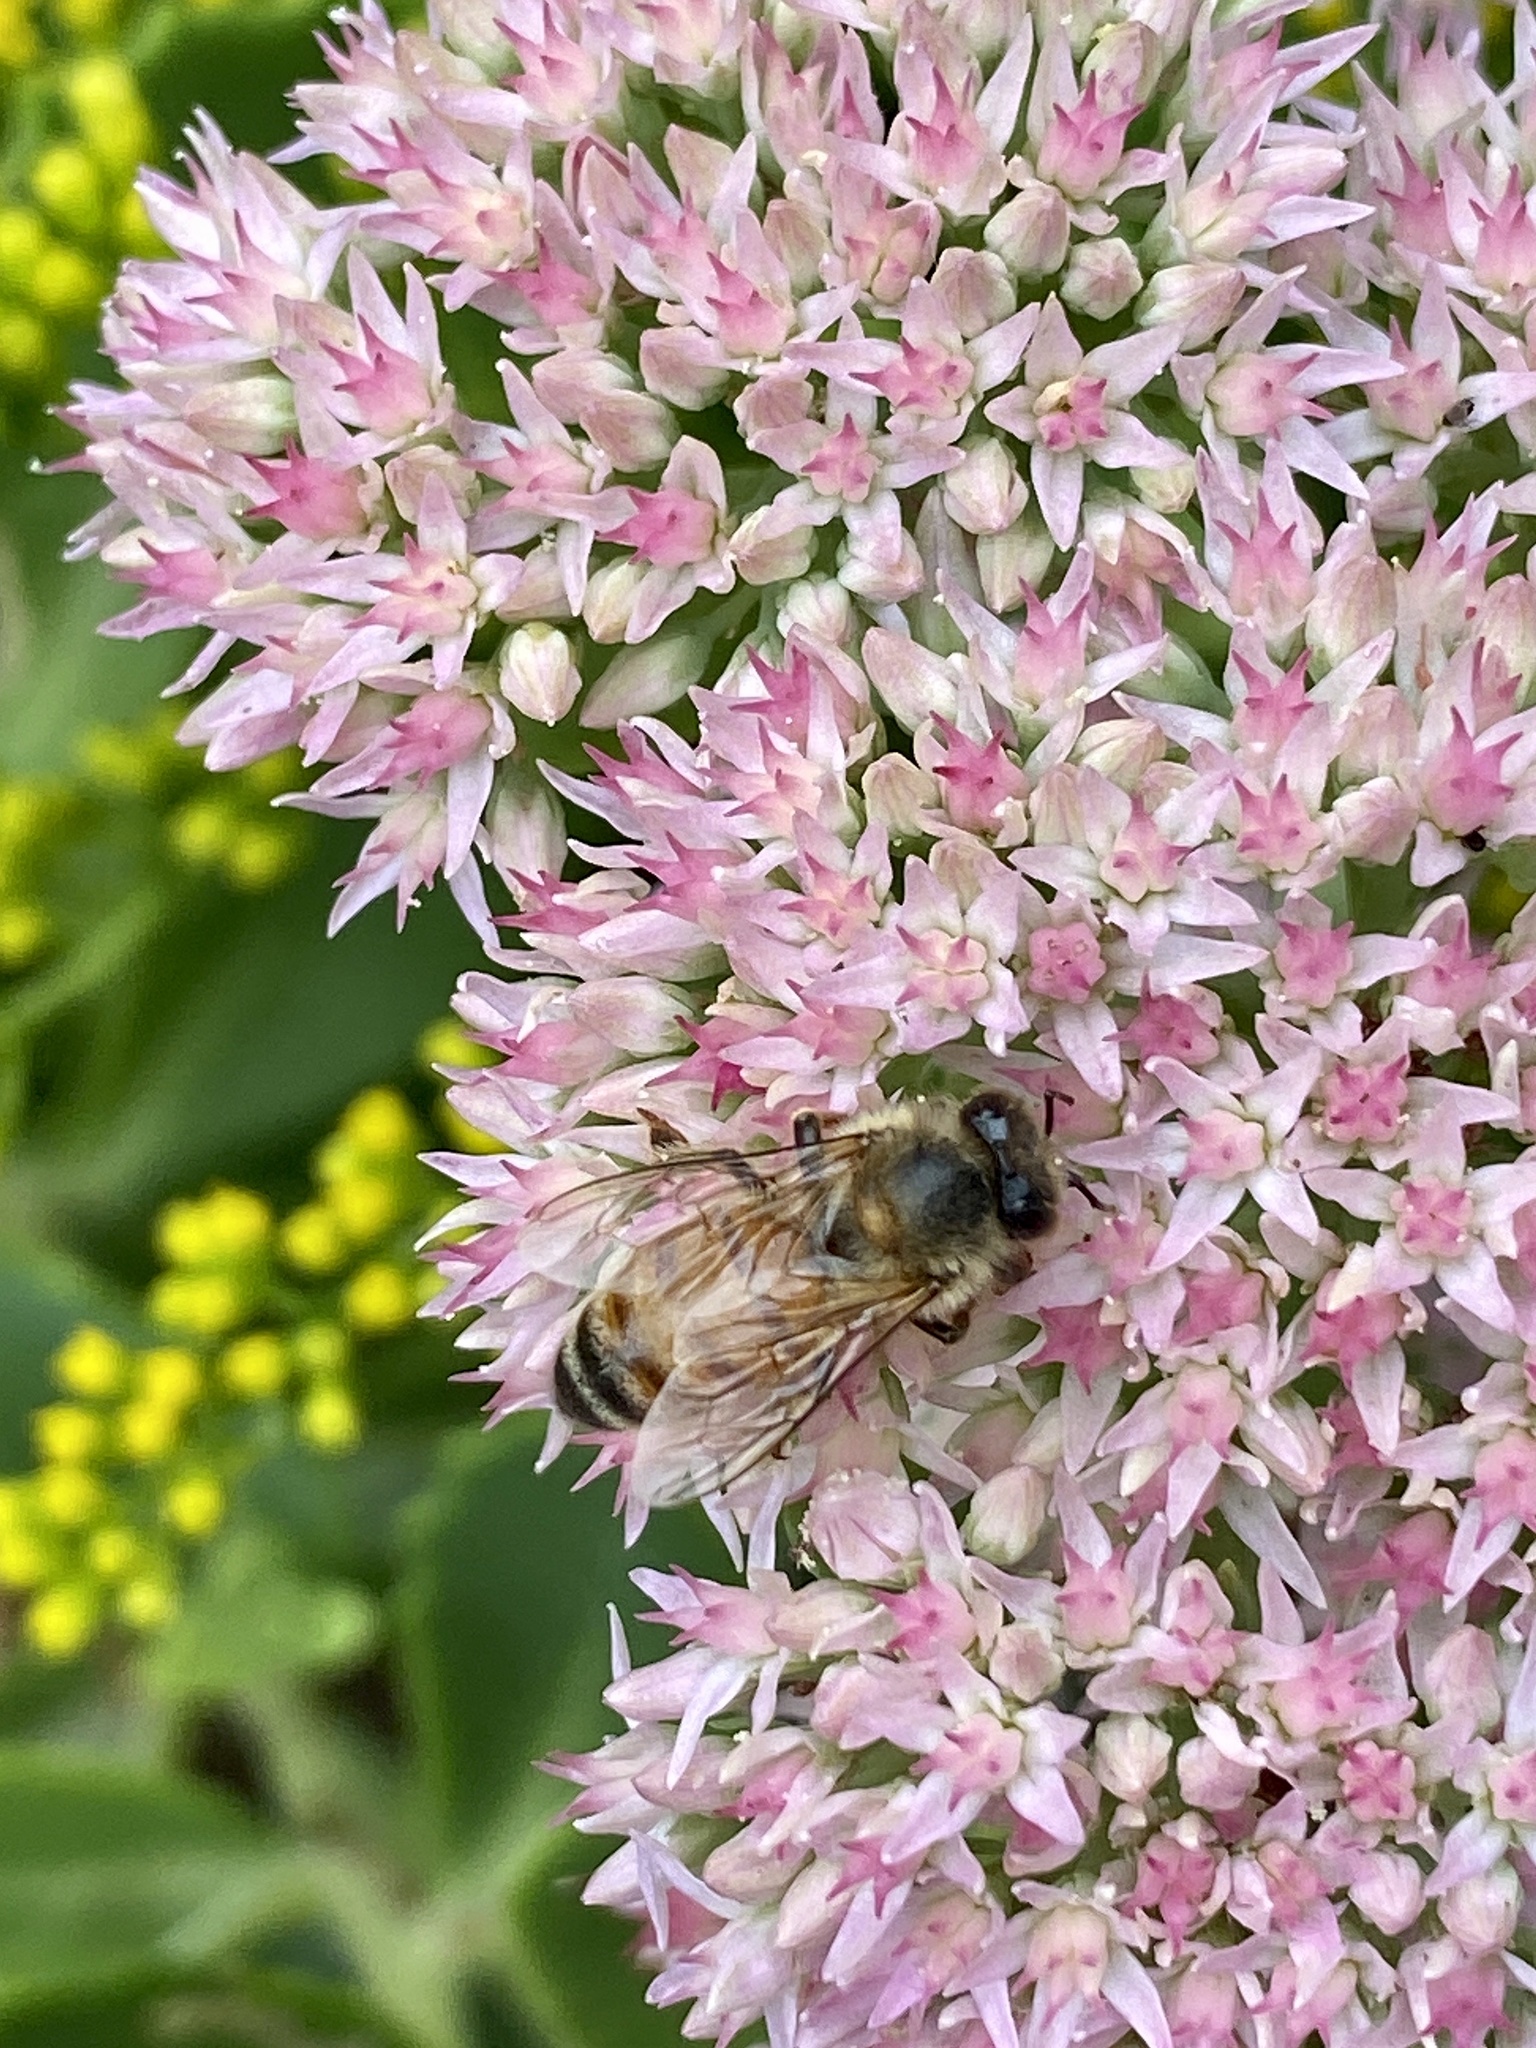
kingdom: Animalia
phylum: Arthropoda
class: Insecta
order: Hymenoptera
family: Apidae
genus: Apis
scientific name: Apis mellifera
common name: Honey bee
